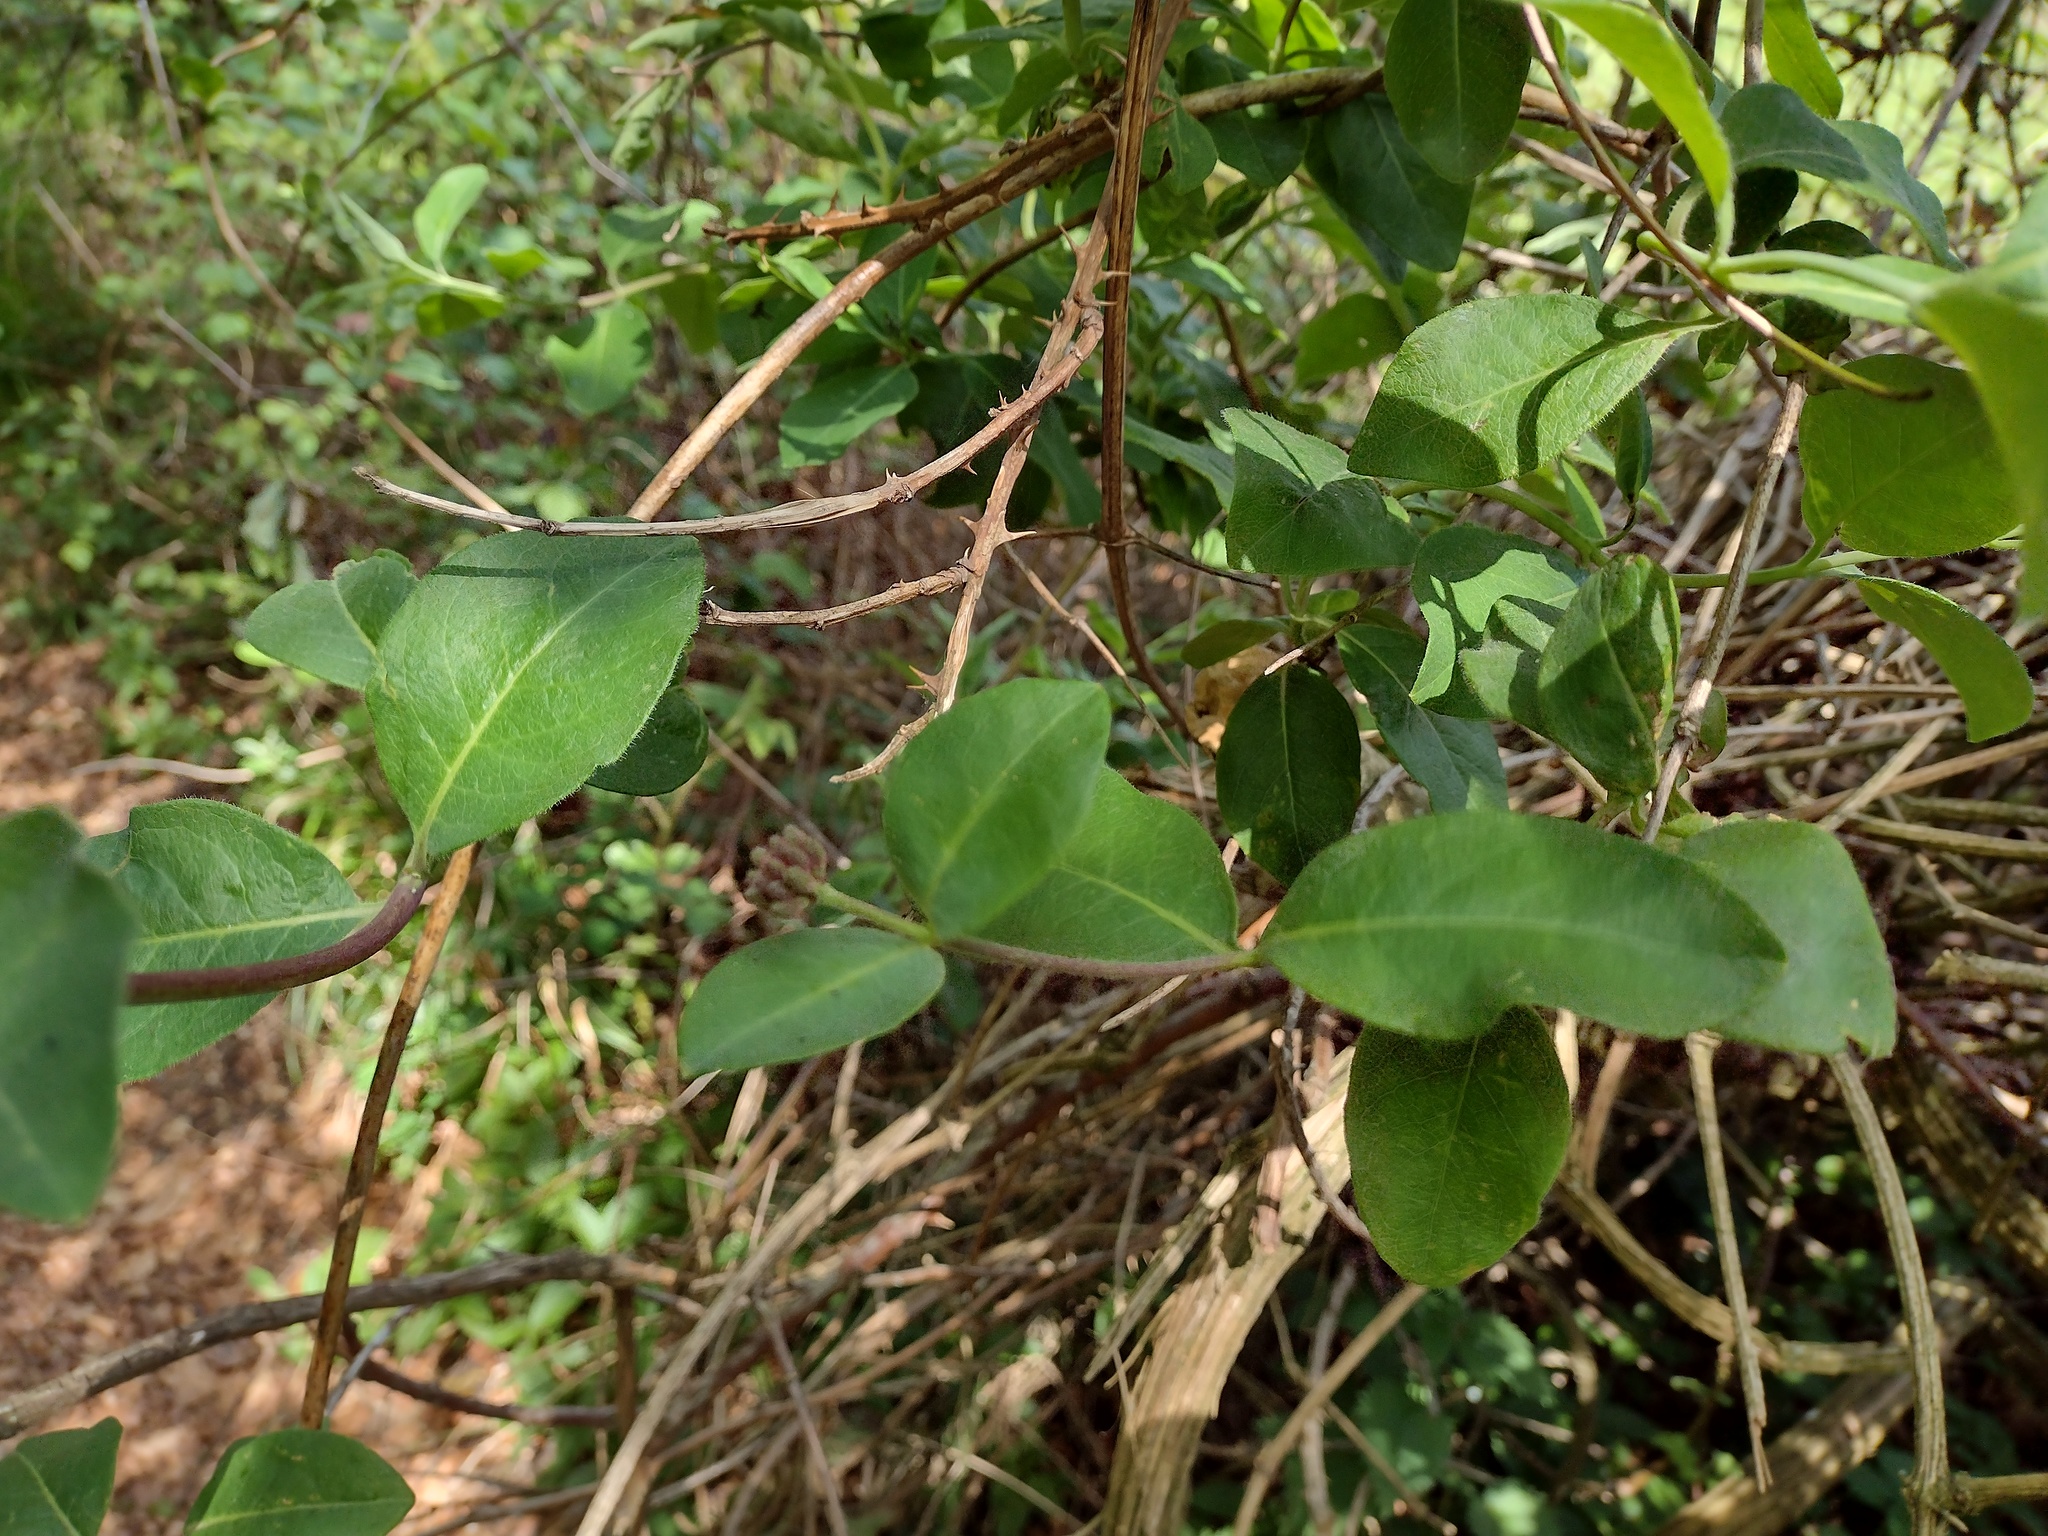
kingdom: Plantae
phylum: Tracheophyta
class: Magnoliopsida
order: Dipsacales
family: Caprifoliaceae
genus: Lonicera
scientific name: Lonicera periclymenum
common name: European honeysuckle
